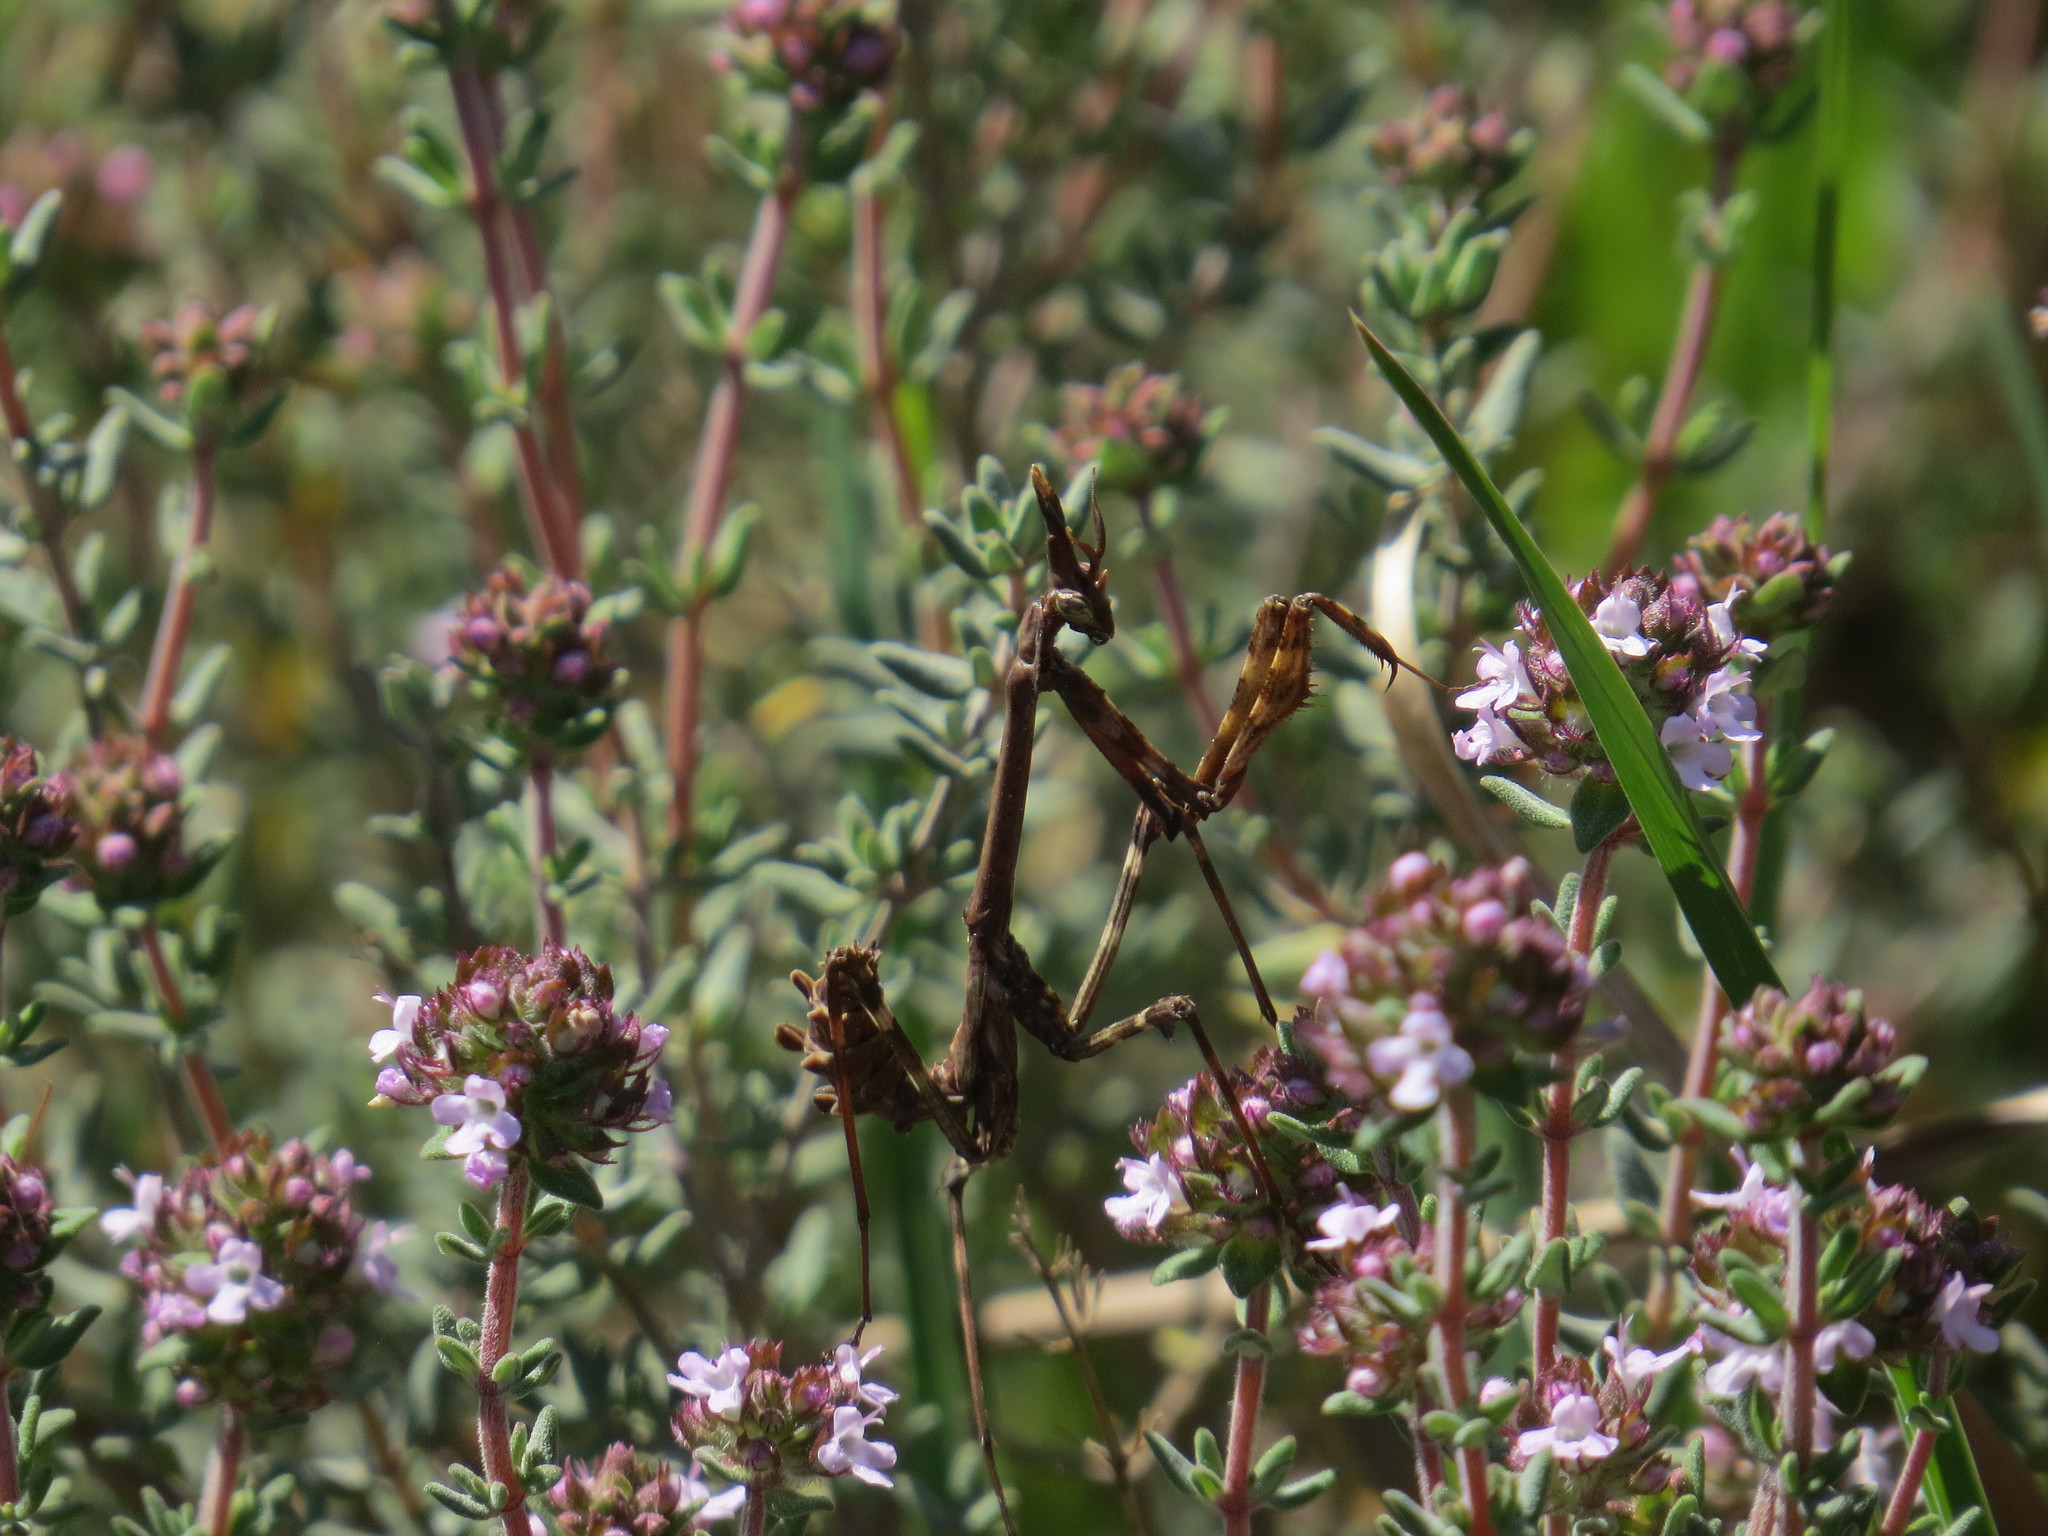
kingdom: Animalia
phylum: Arthropoda
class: Insecta
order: Mantodea
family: Empusidae
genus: Empusa
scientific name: Empusa pennata
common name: Conehead mantis
